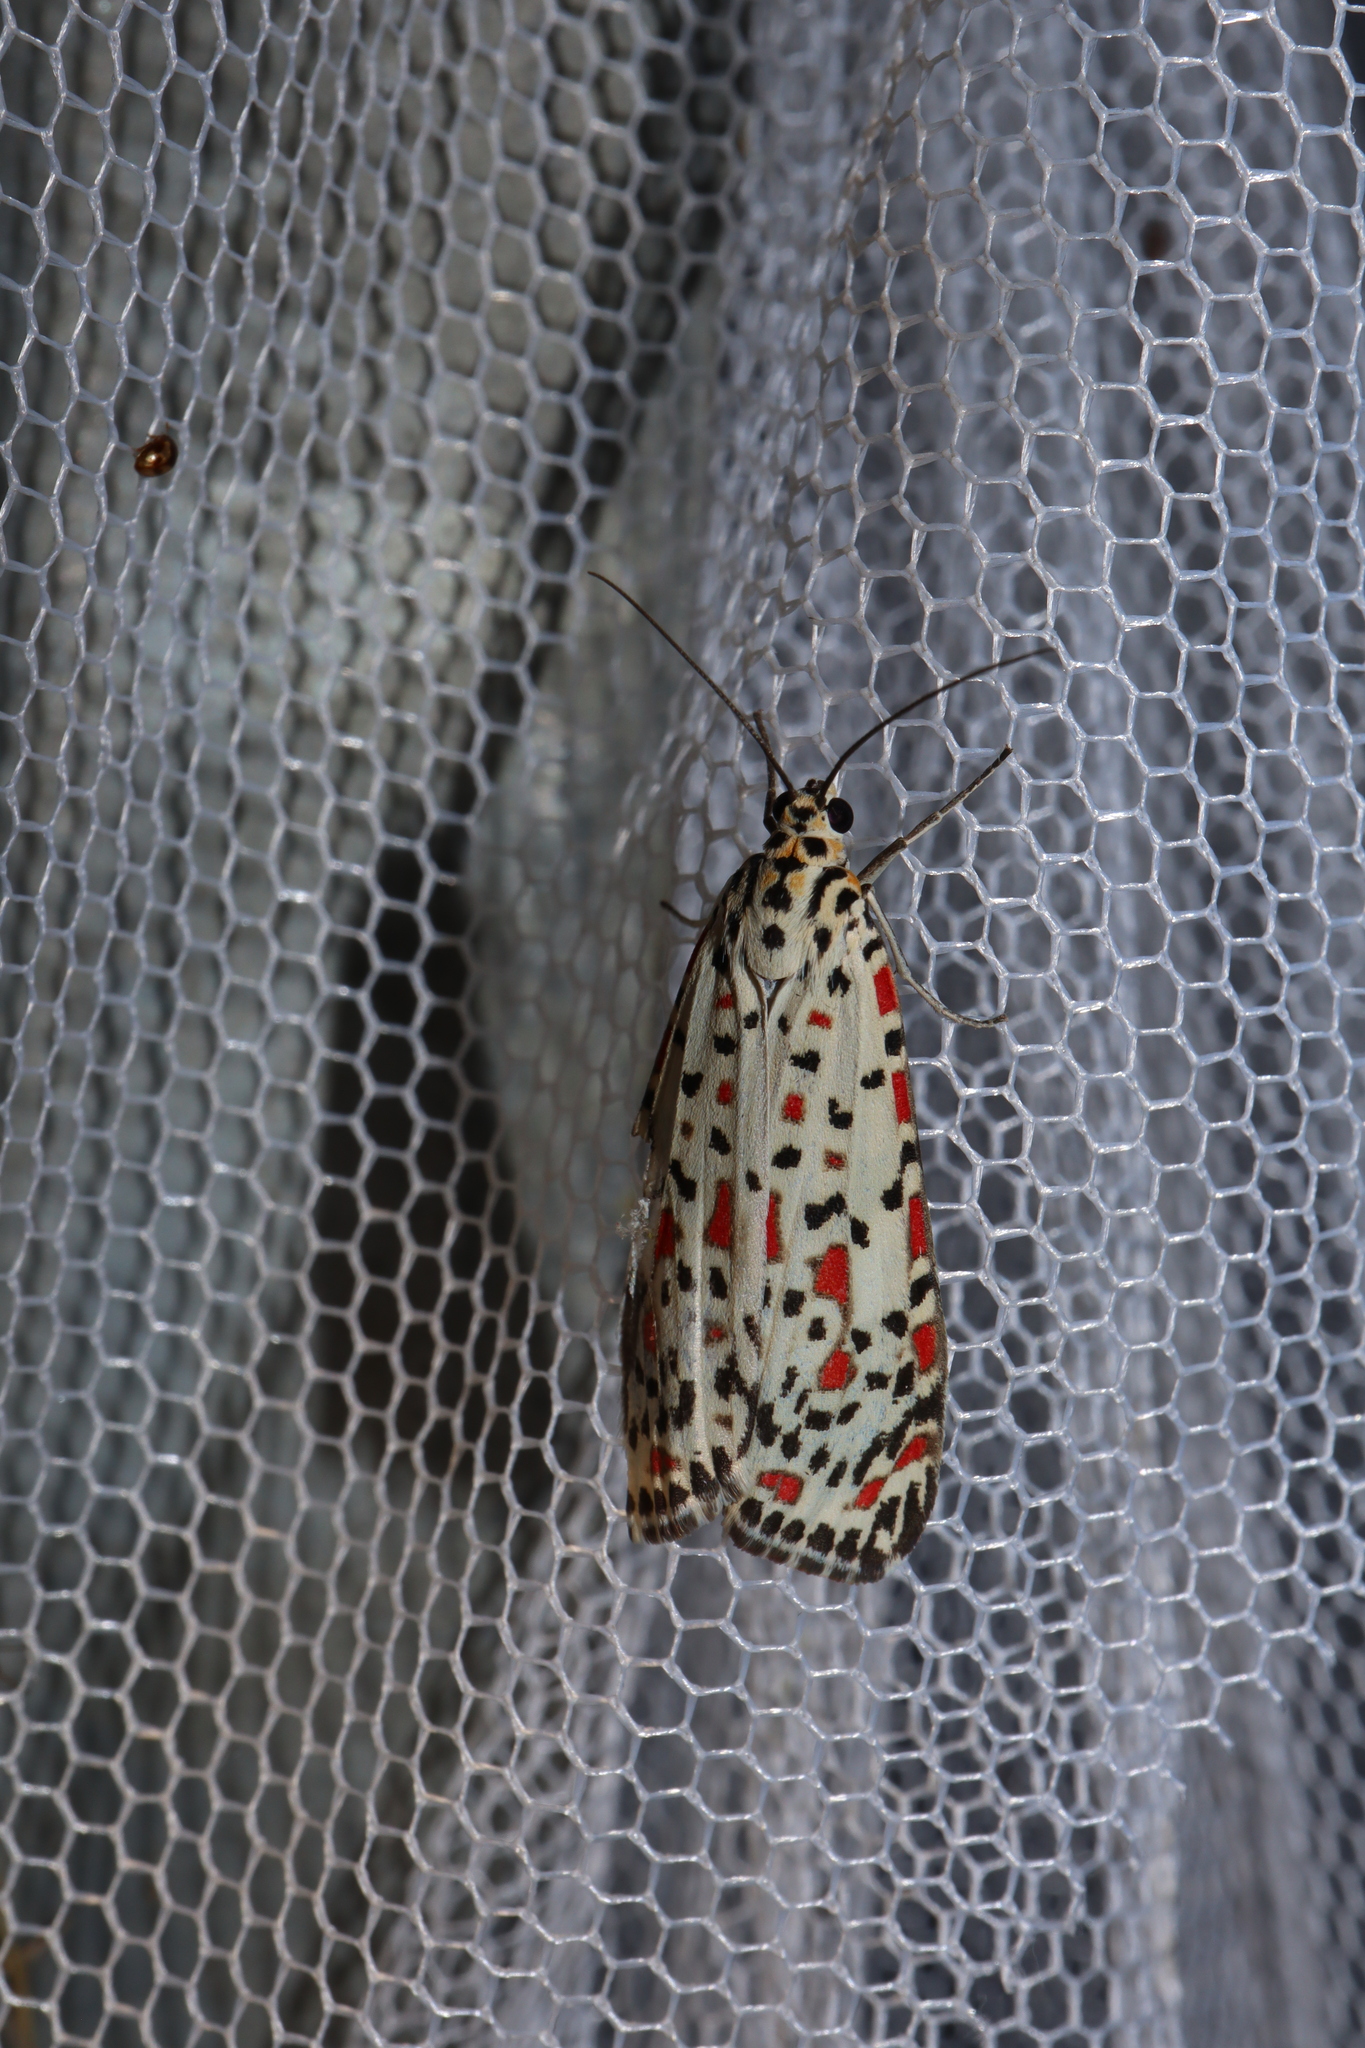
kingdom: Animalia
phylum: Arthropoda
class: Insecta
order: Lepidoptera
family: Erebidae
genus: Utetheisa
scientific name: Utetheisa pulchelloides
